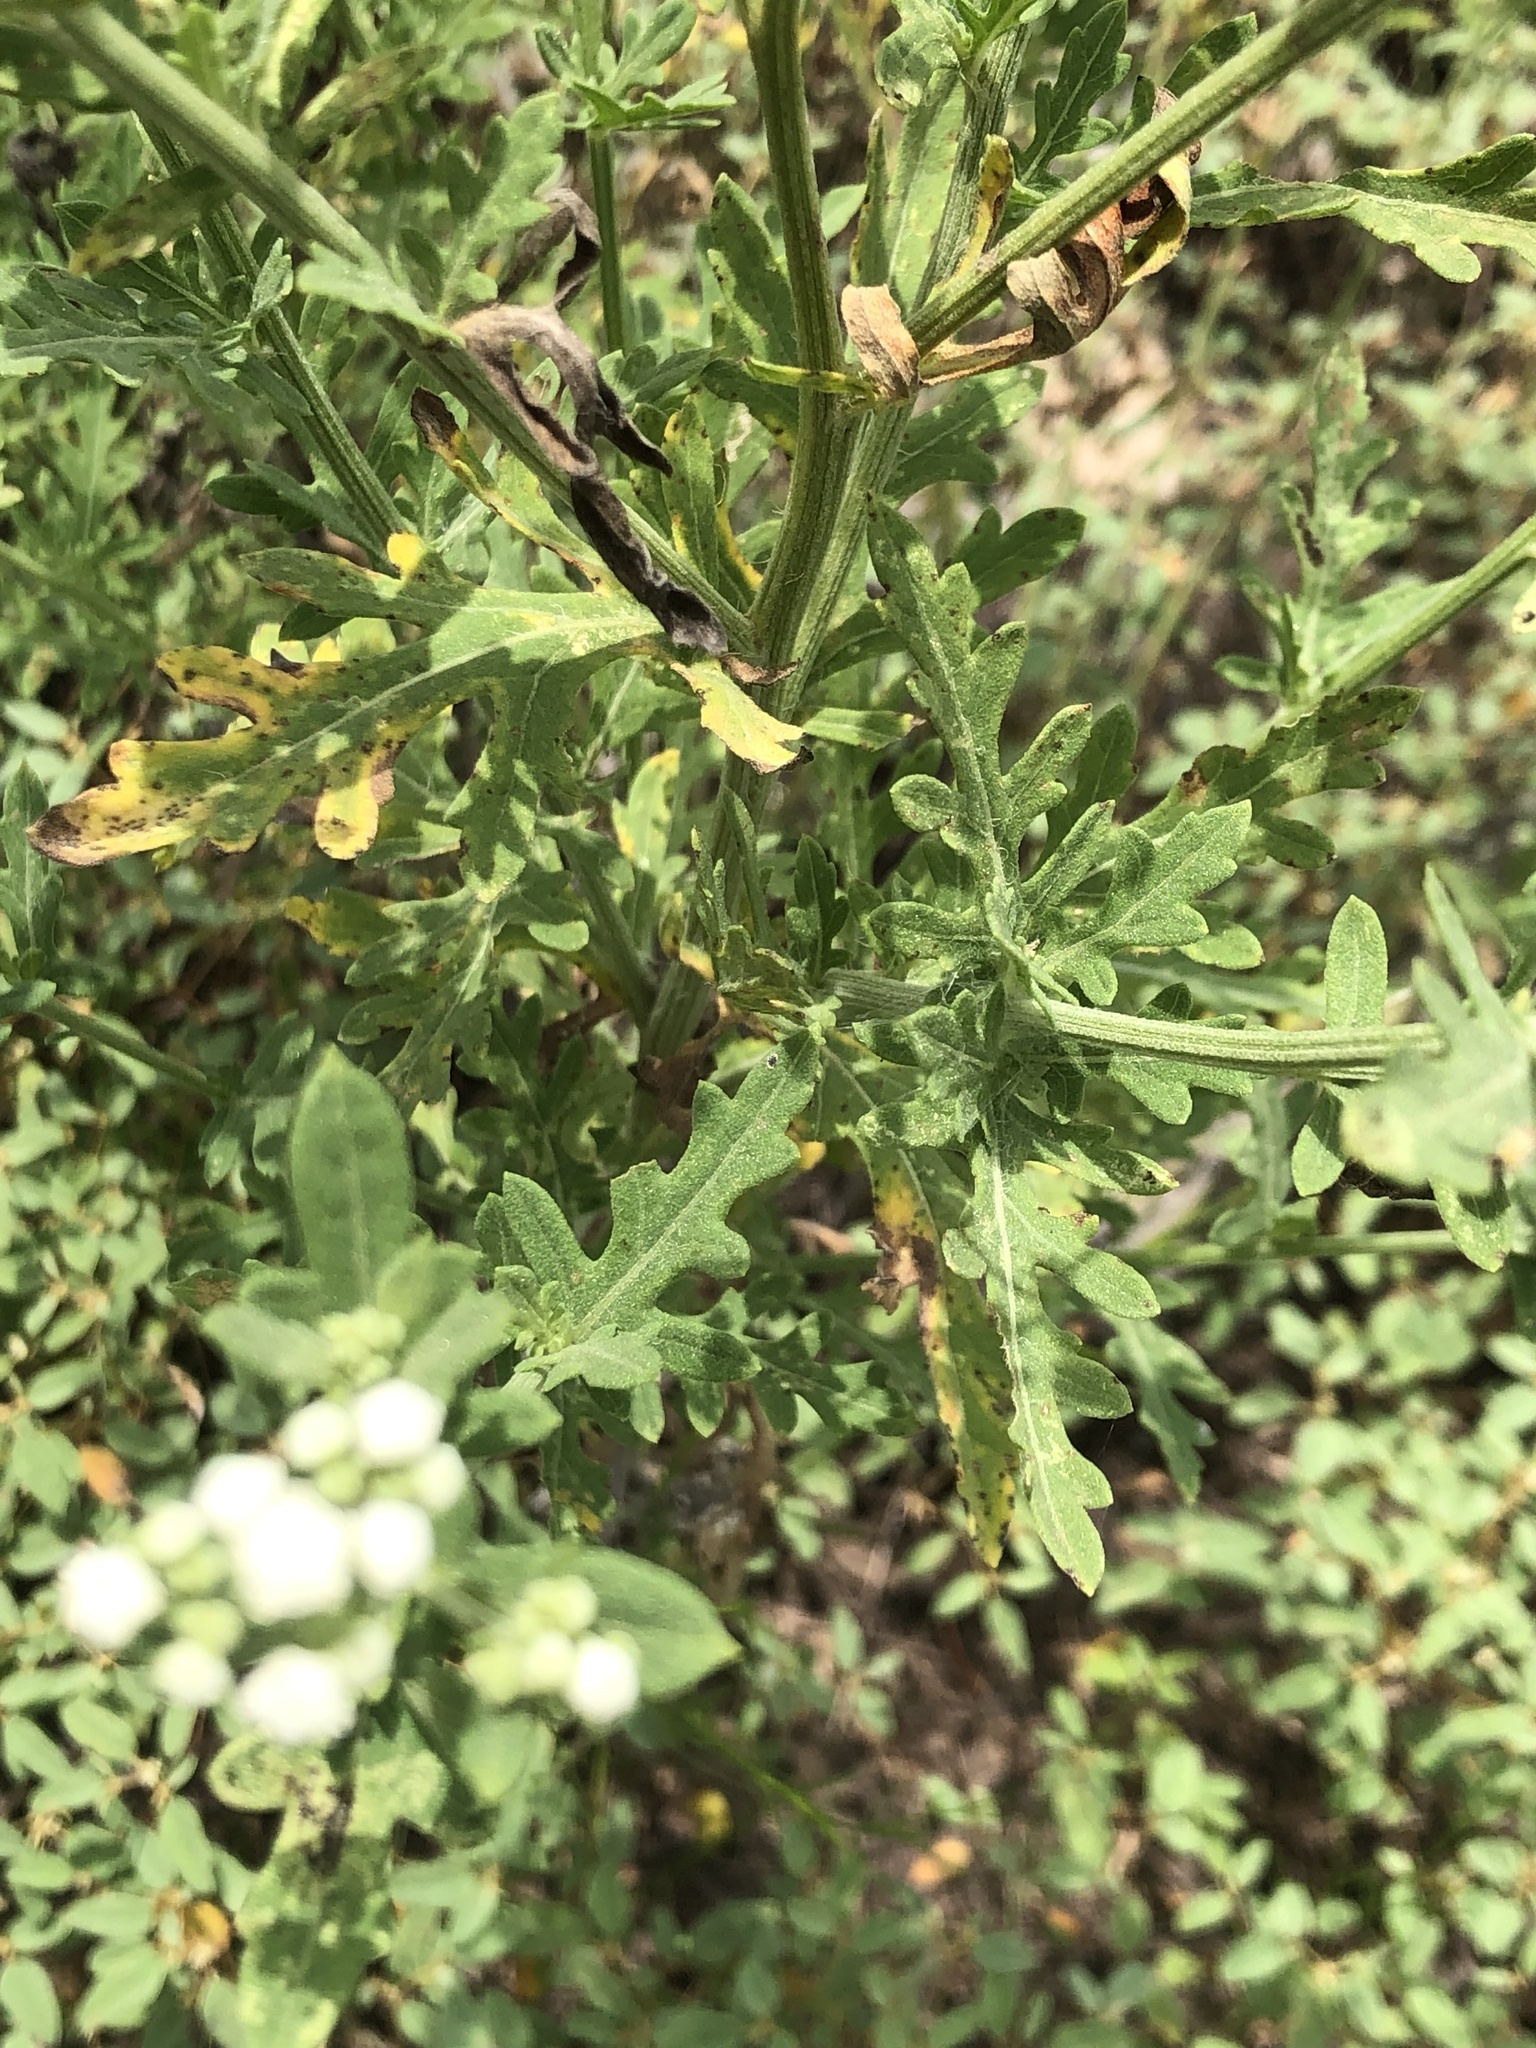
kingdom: Plantae
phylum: Tracheophyta
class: Magnoliopsida
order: Asterales
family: Asteraceae
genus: Parthenium
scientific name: Parthenium hysterophorus
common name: Santa maria feverfew
